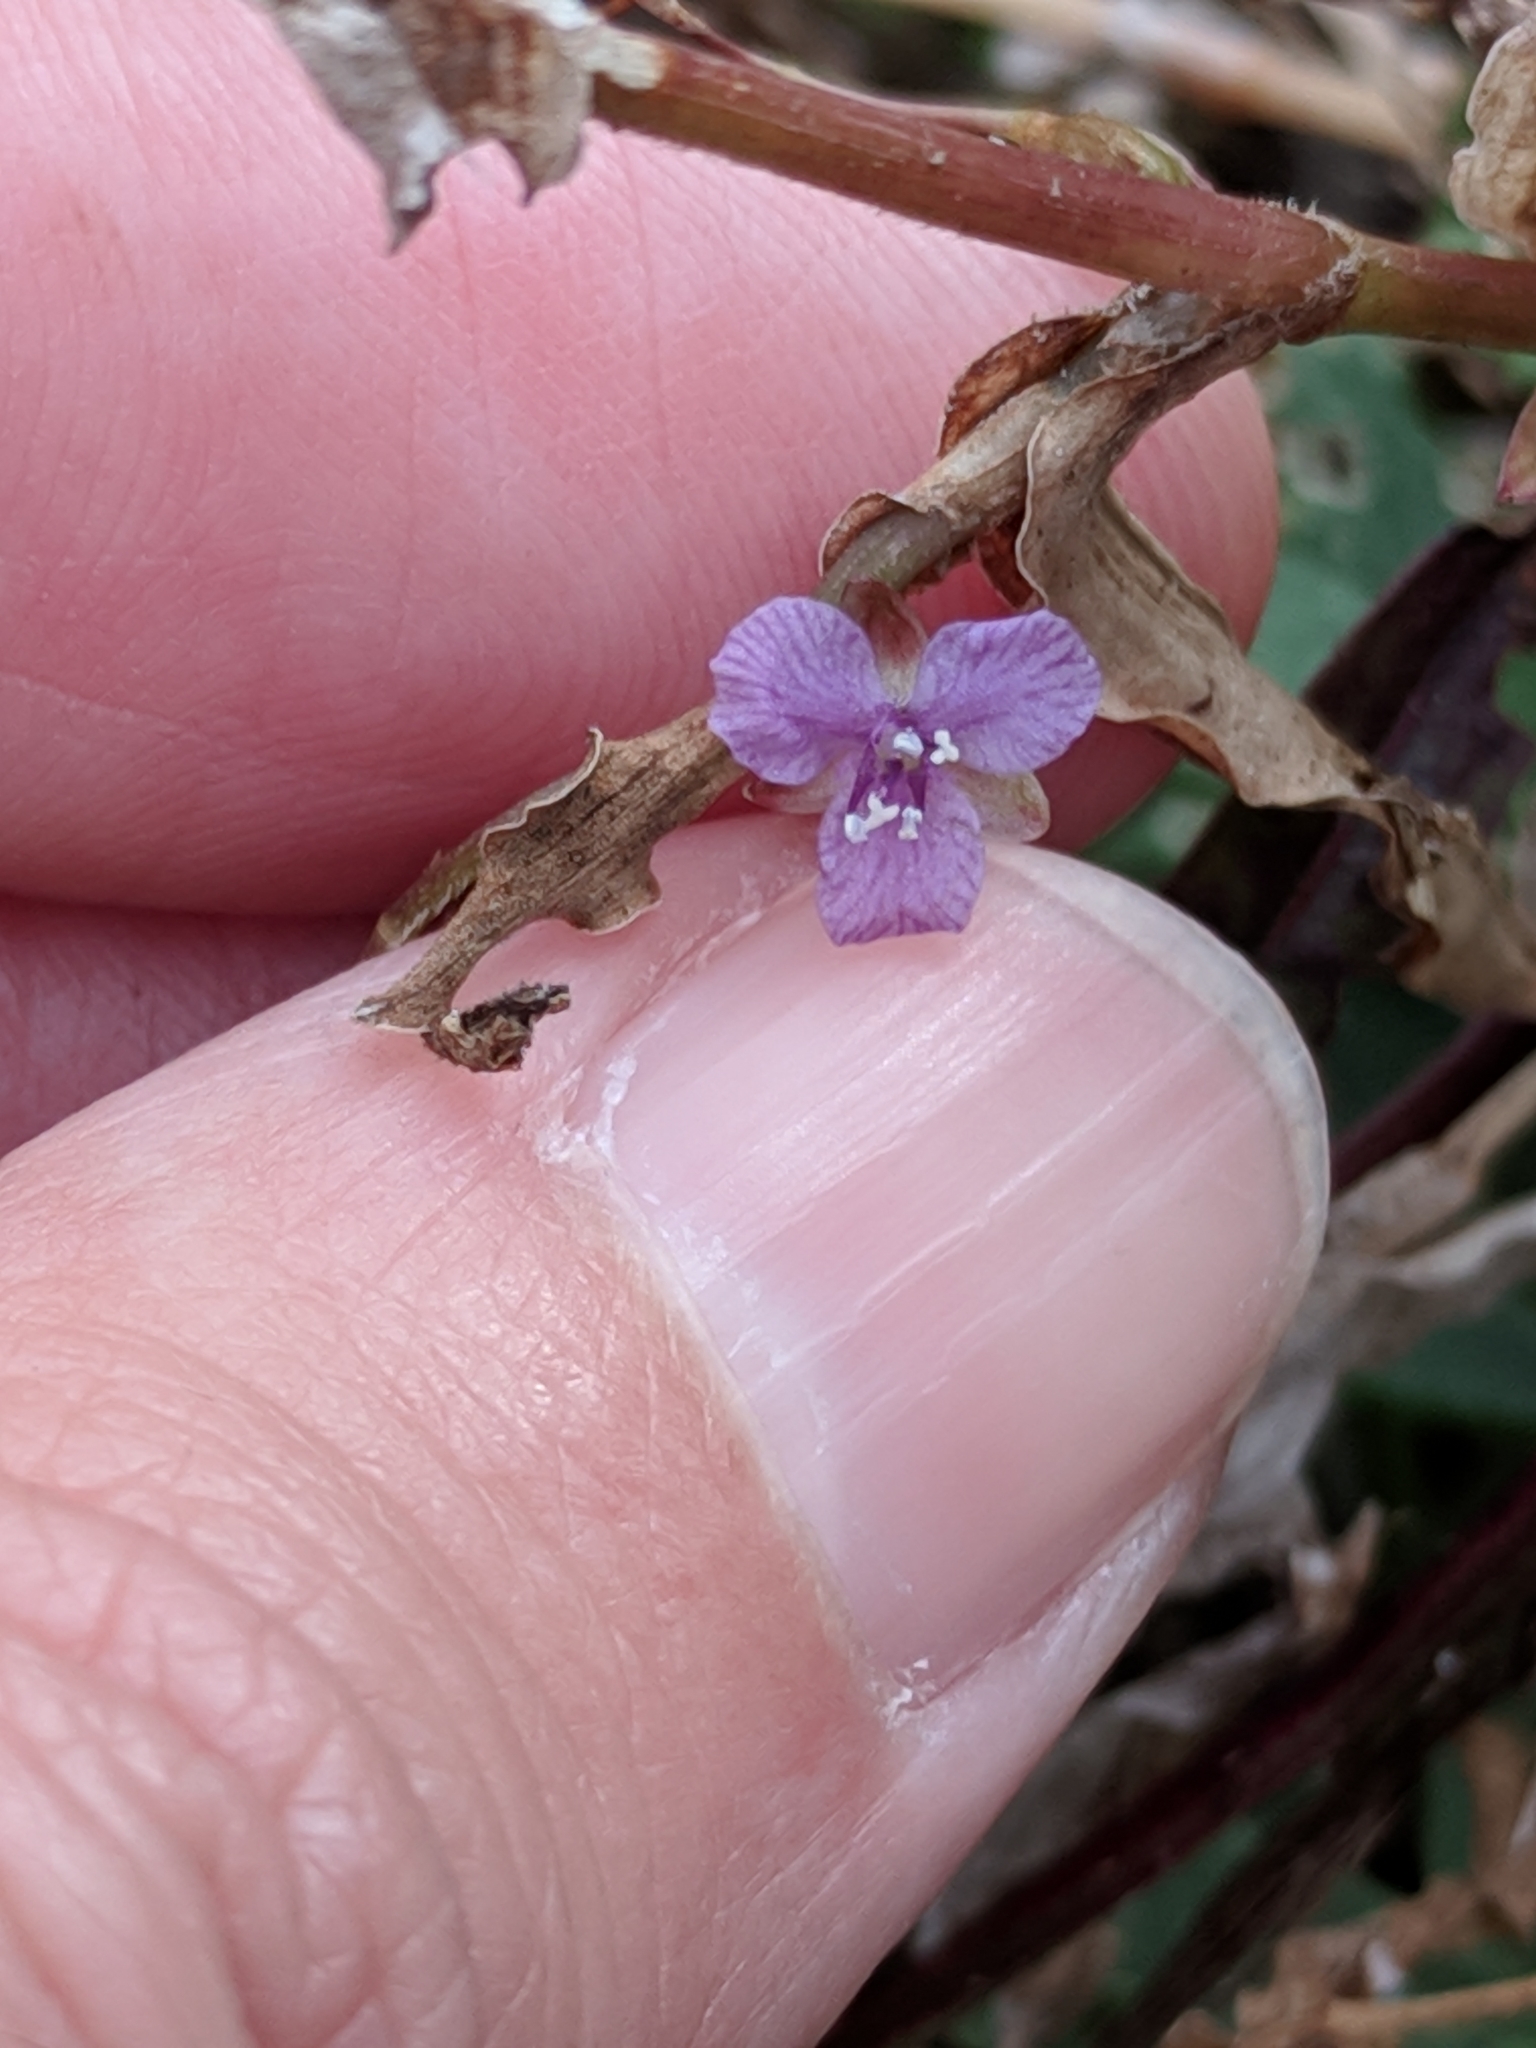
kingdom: Plantae
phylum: Tracheophyta
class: Liliopsida
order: Commelinales
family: Commelinaceae
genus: Murdannia
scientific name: Murdannia spirata
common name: Asiatic dewflower
